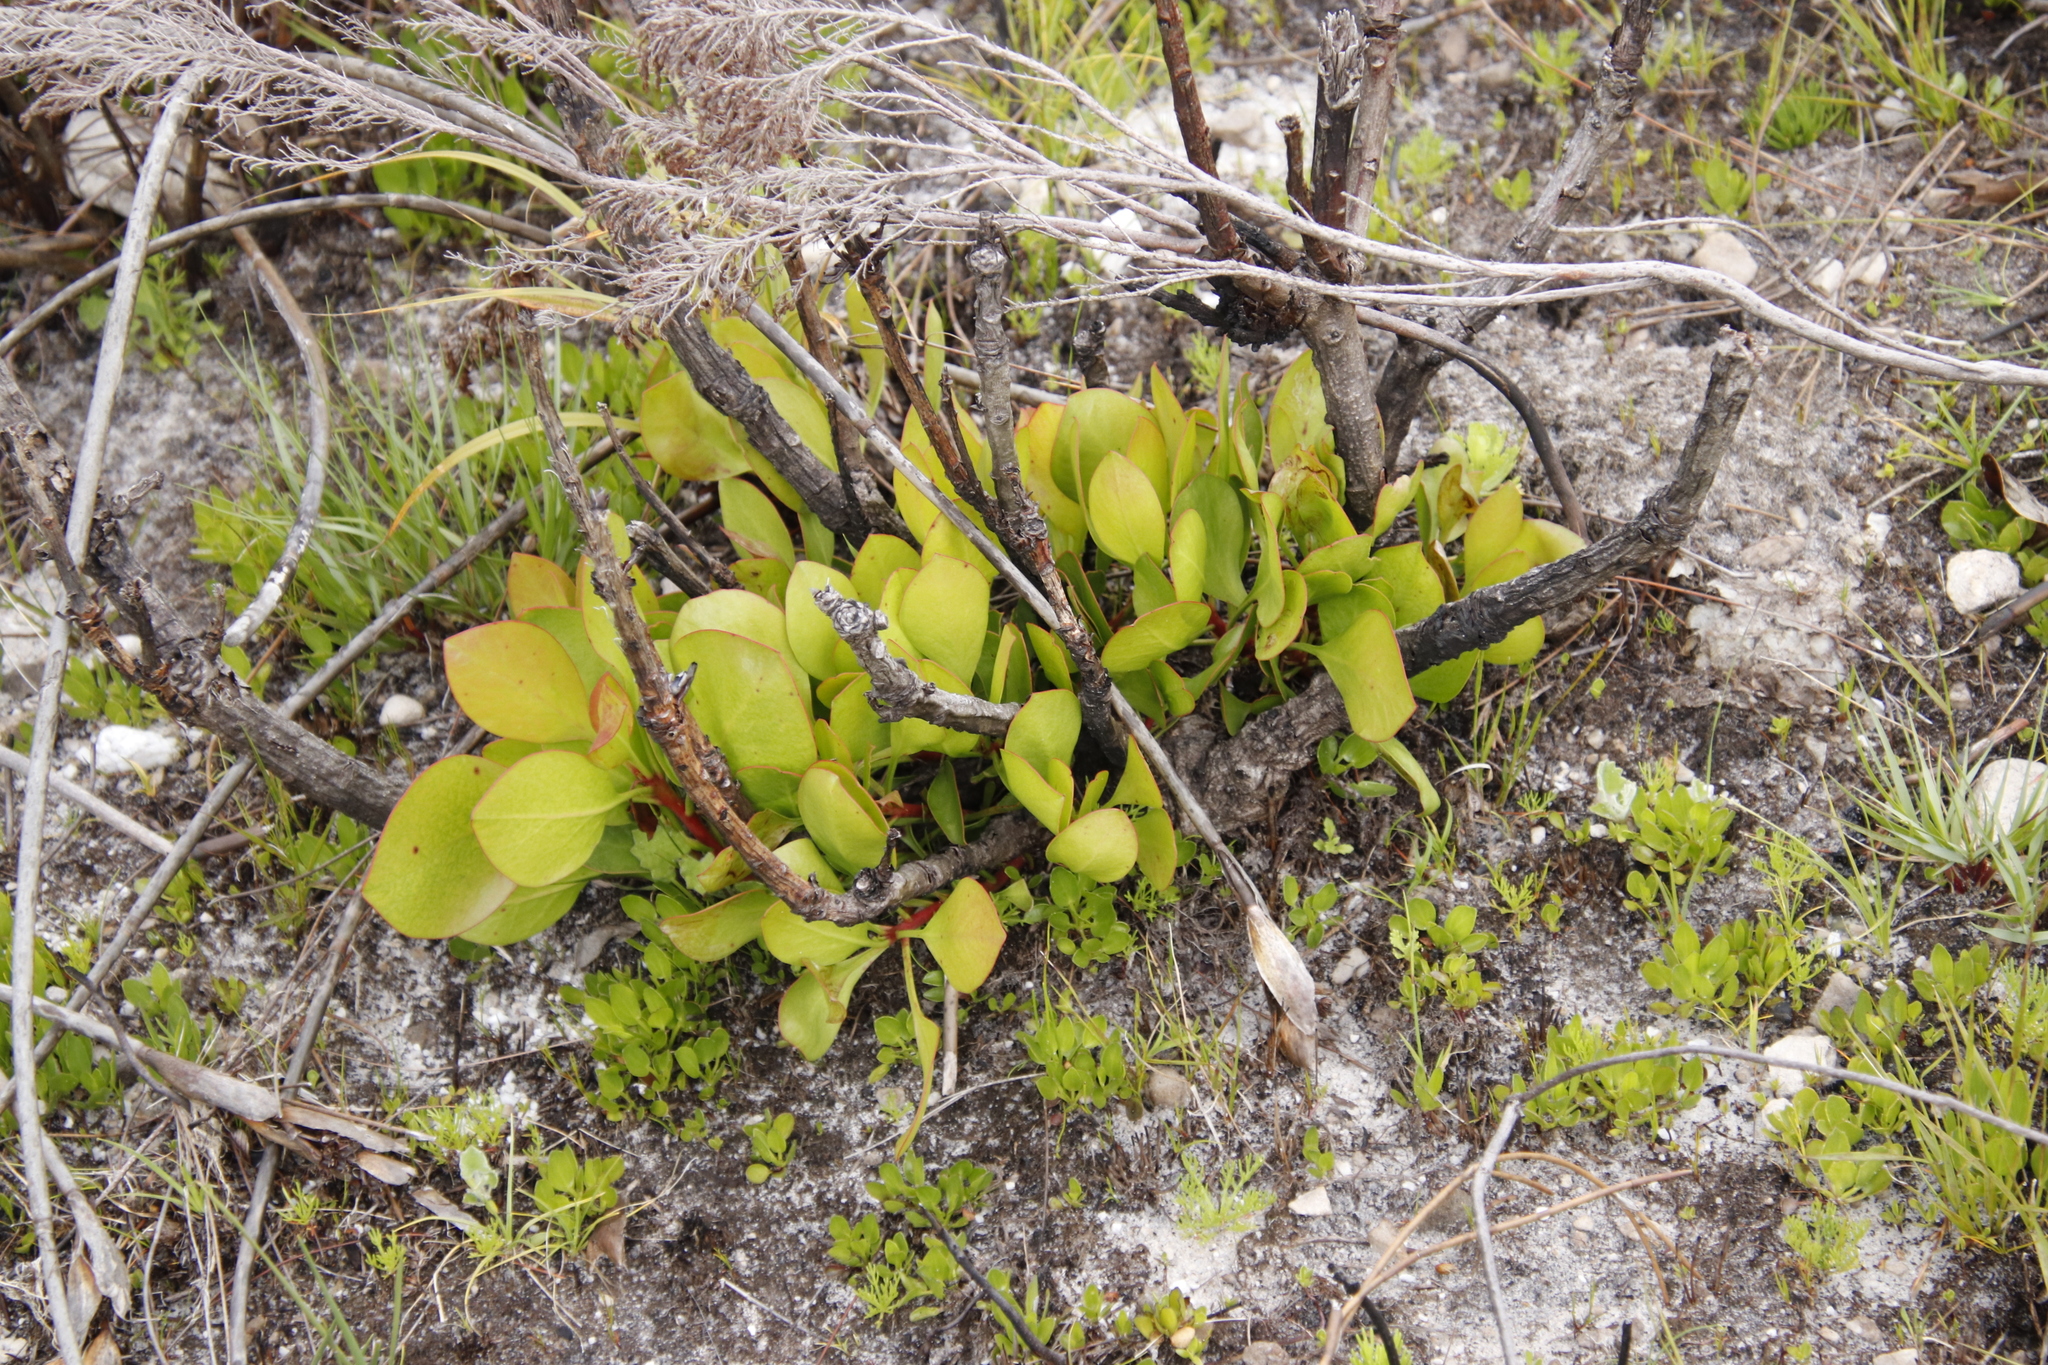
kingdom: Plantae
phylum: Tracheophyta
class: Magnoliopsida
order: Proteales
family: Proteaceae
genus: Protea
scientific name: Protea cynaroides
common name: King protea
